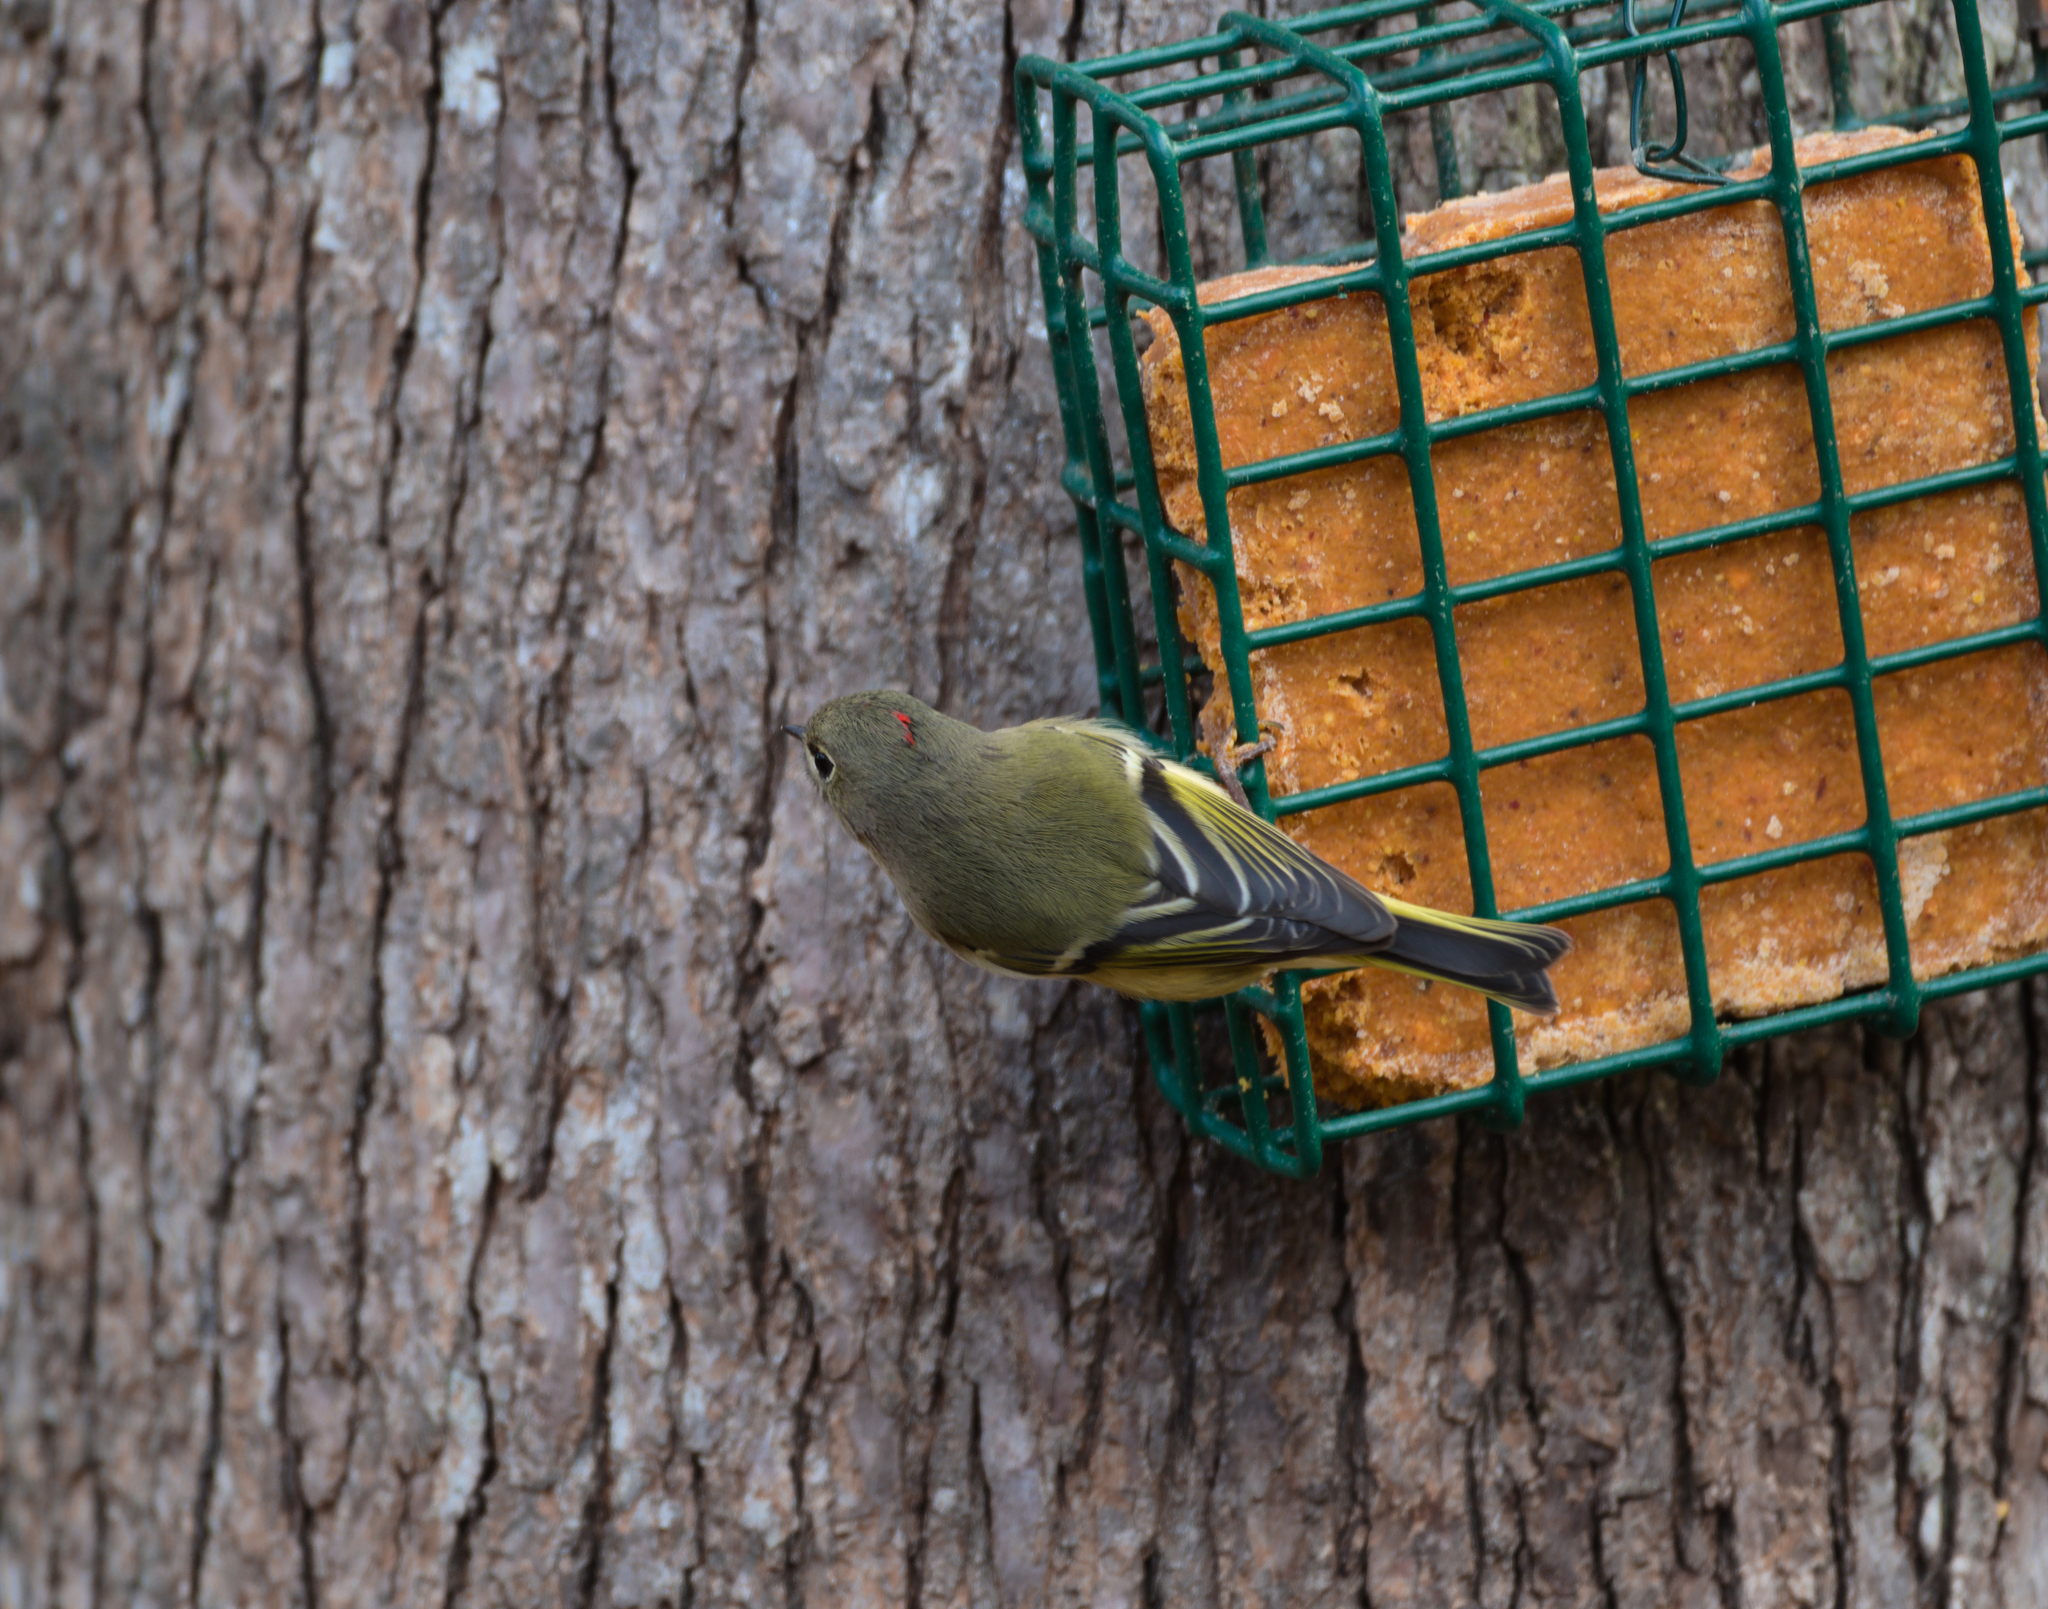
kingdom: Animalia
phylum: Chordata
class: Aves
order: Passeriformes
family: Regulidae
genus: Regulus
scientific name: Regulus calendula
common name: Ruby-crowned kinglet
